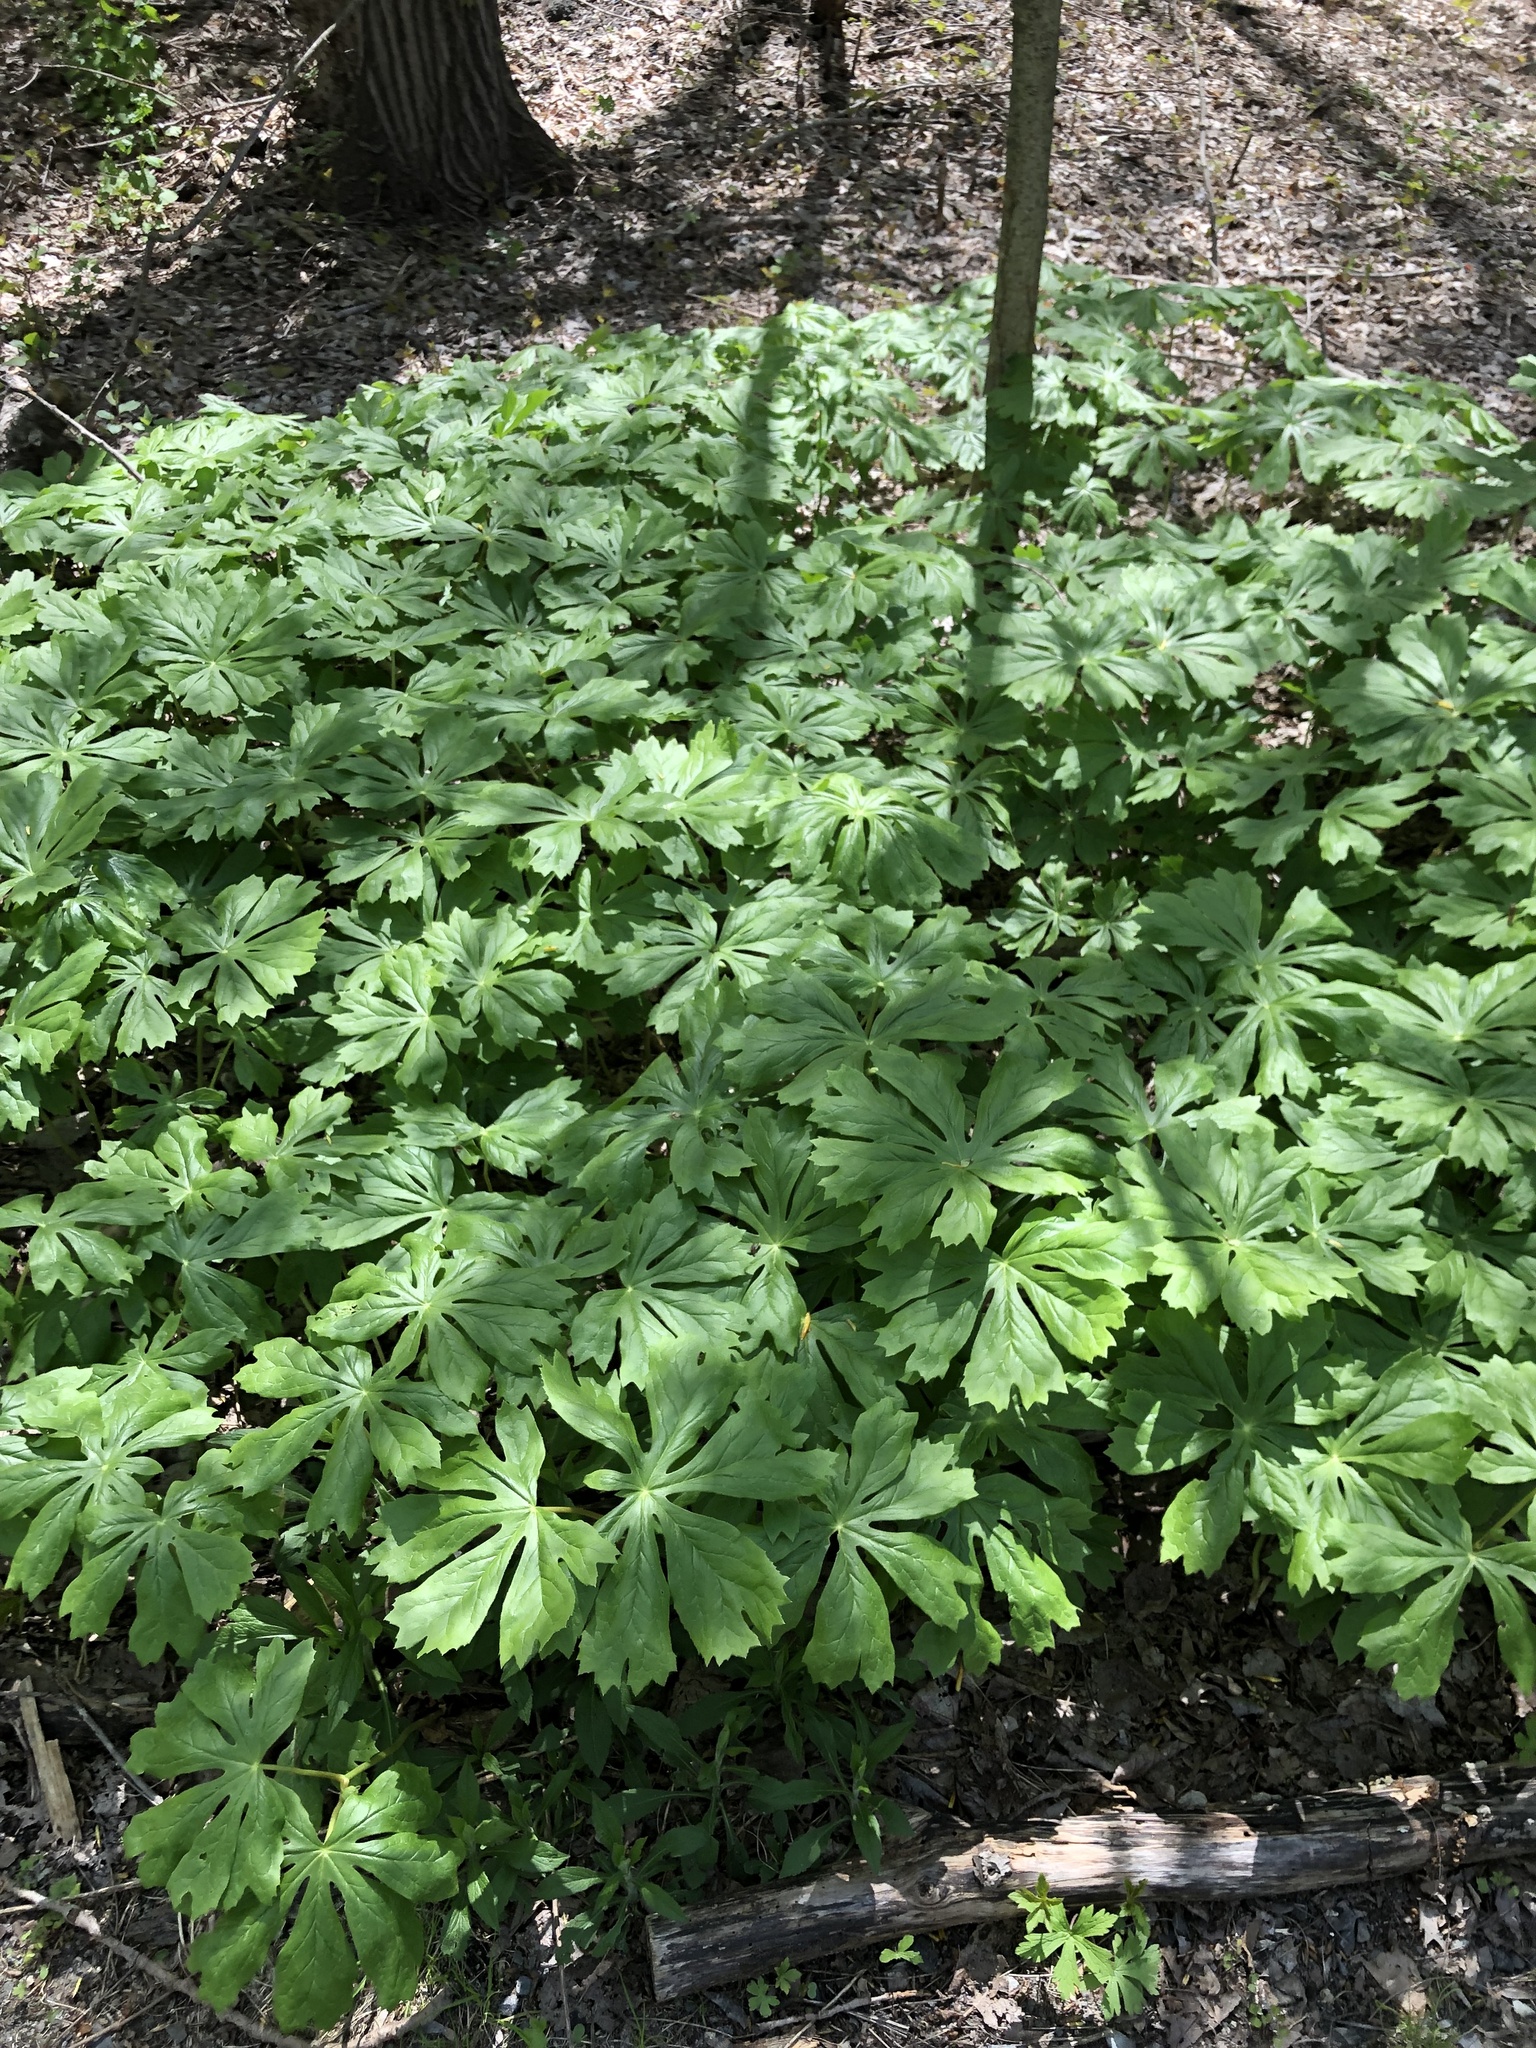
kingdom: Plantae
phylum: Tracheophyta
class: Magnoliopsida
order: Ranunculales
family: Berberidaceae
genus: Podophyllum
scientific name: Podophyllum peltatum
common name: Wild mandrake
